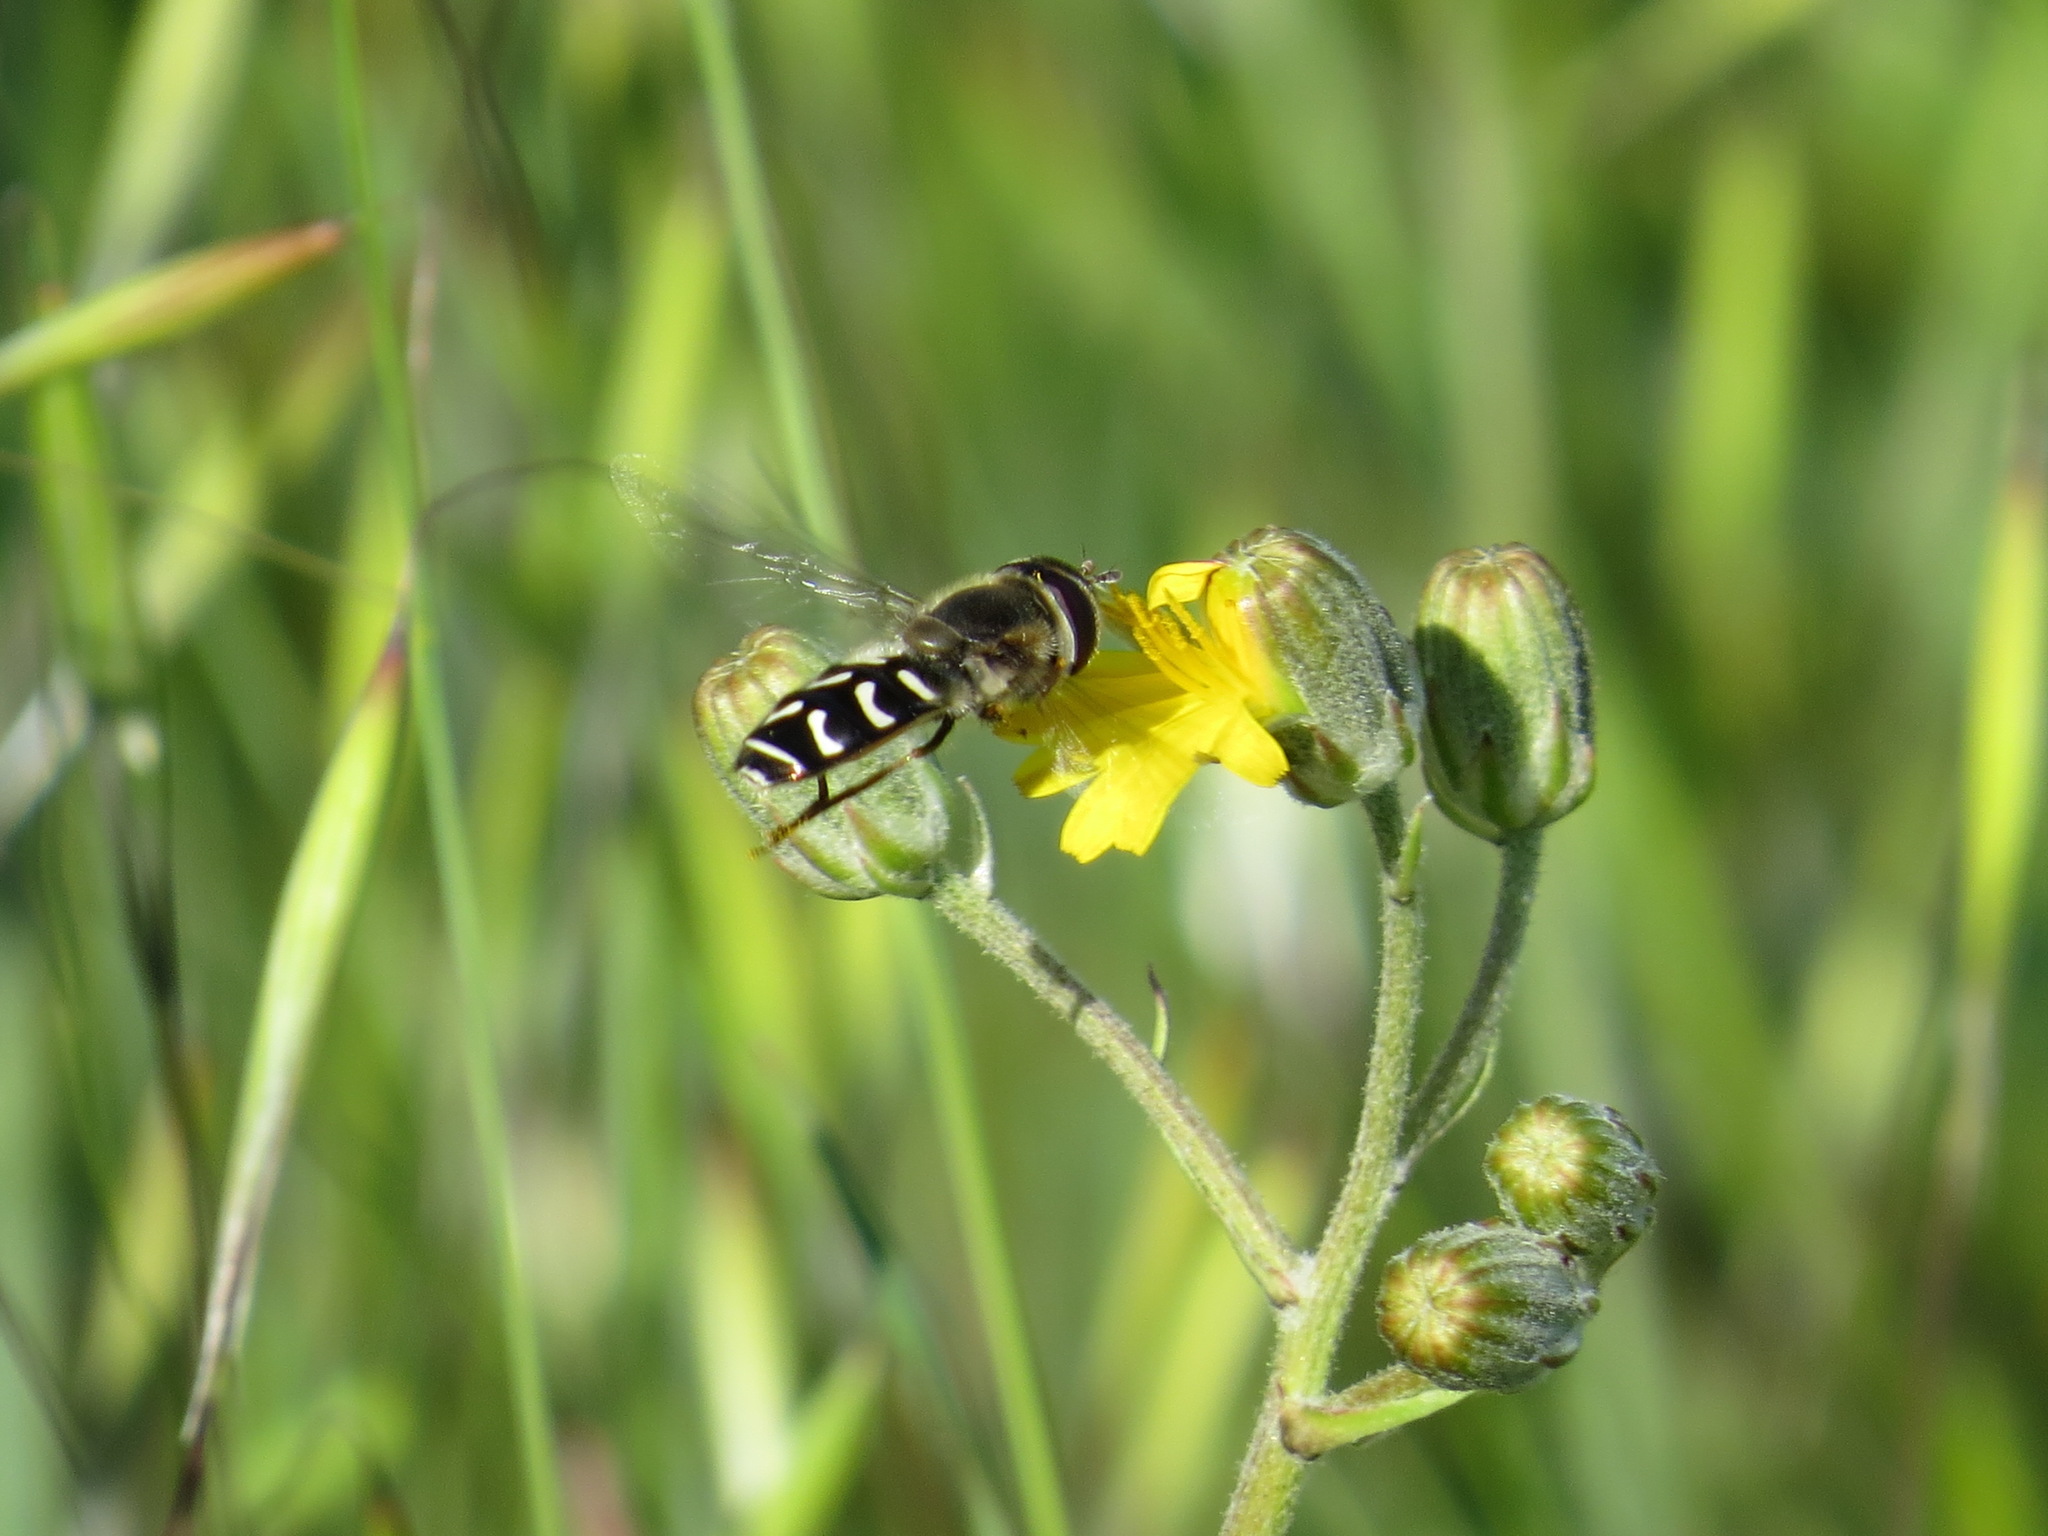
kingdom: Animalia
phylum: Arthropoda
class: Insecta
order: Diptera
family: Syrphidae
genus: Scaeva
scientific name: Scaeva affinis
